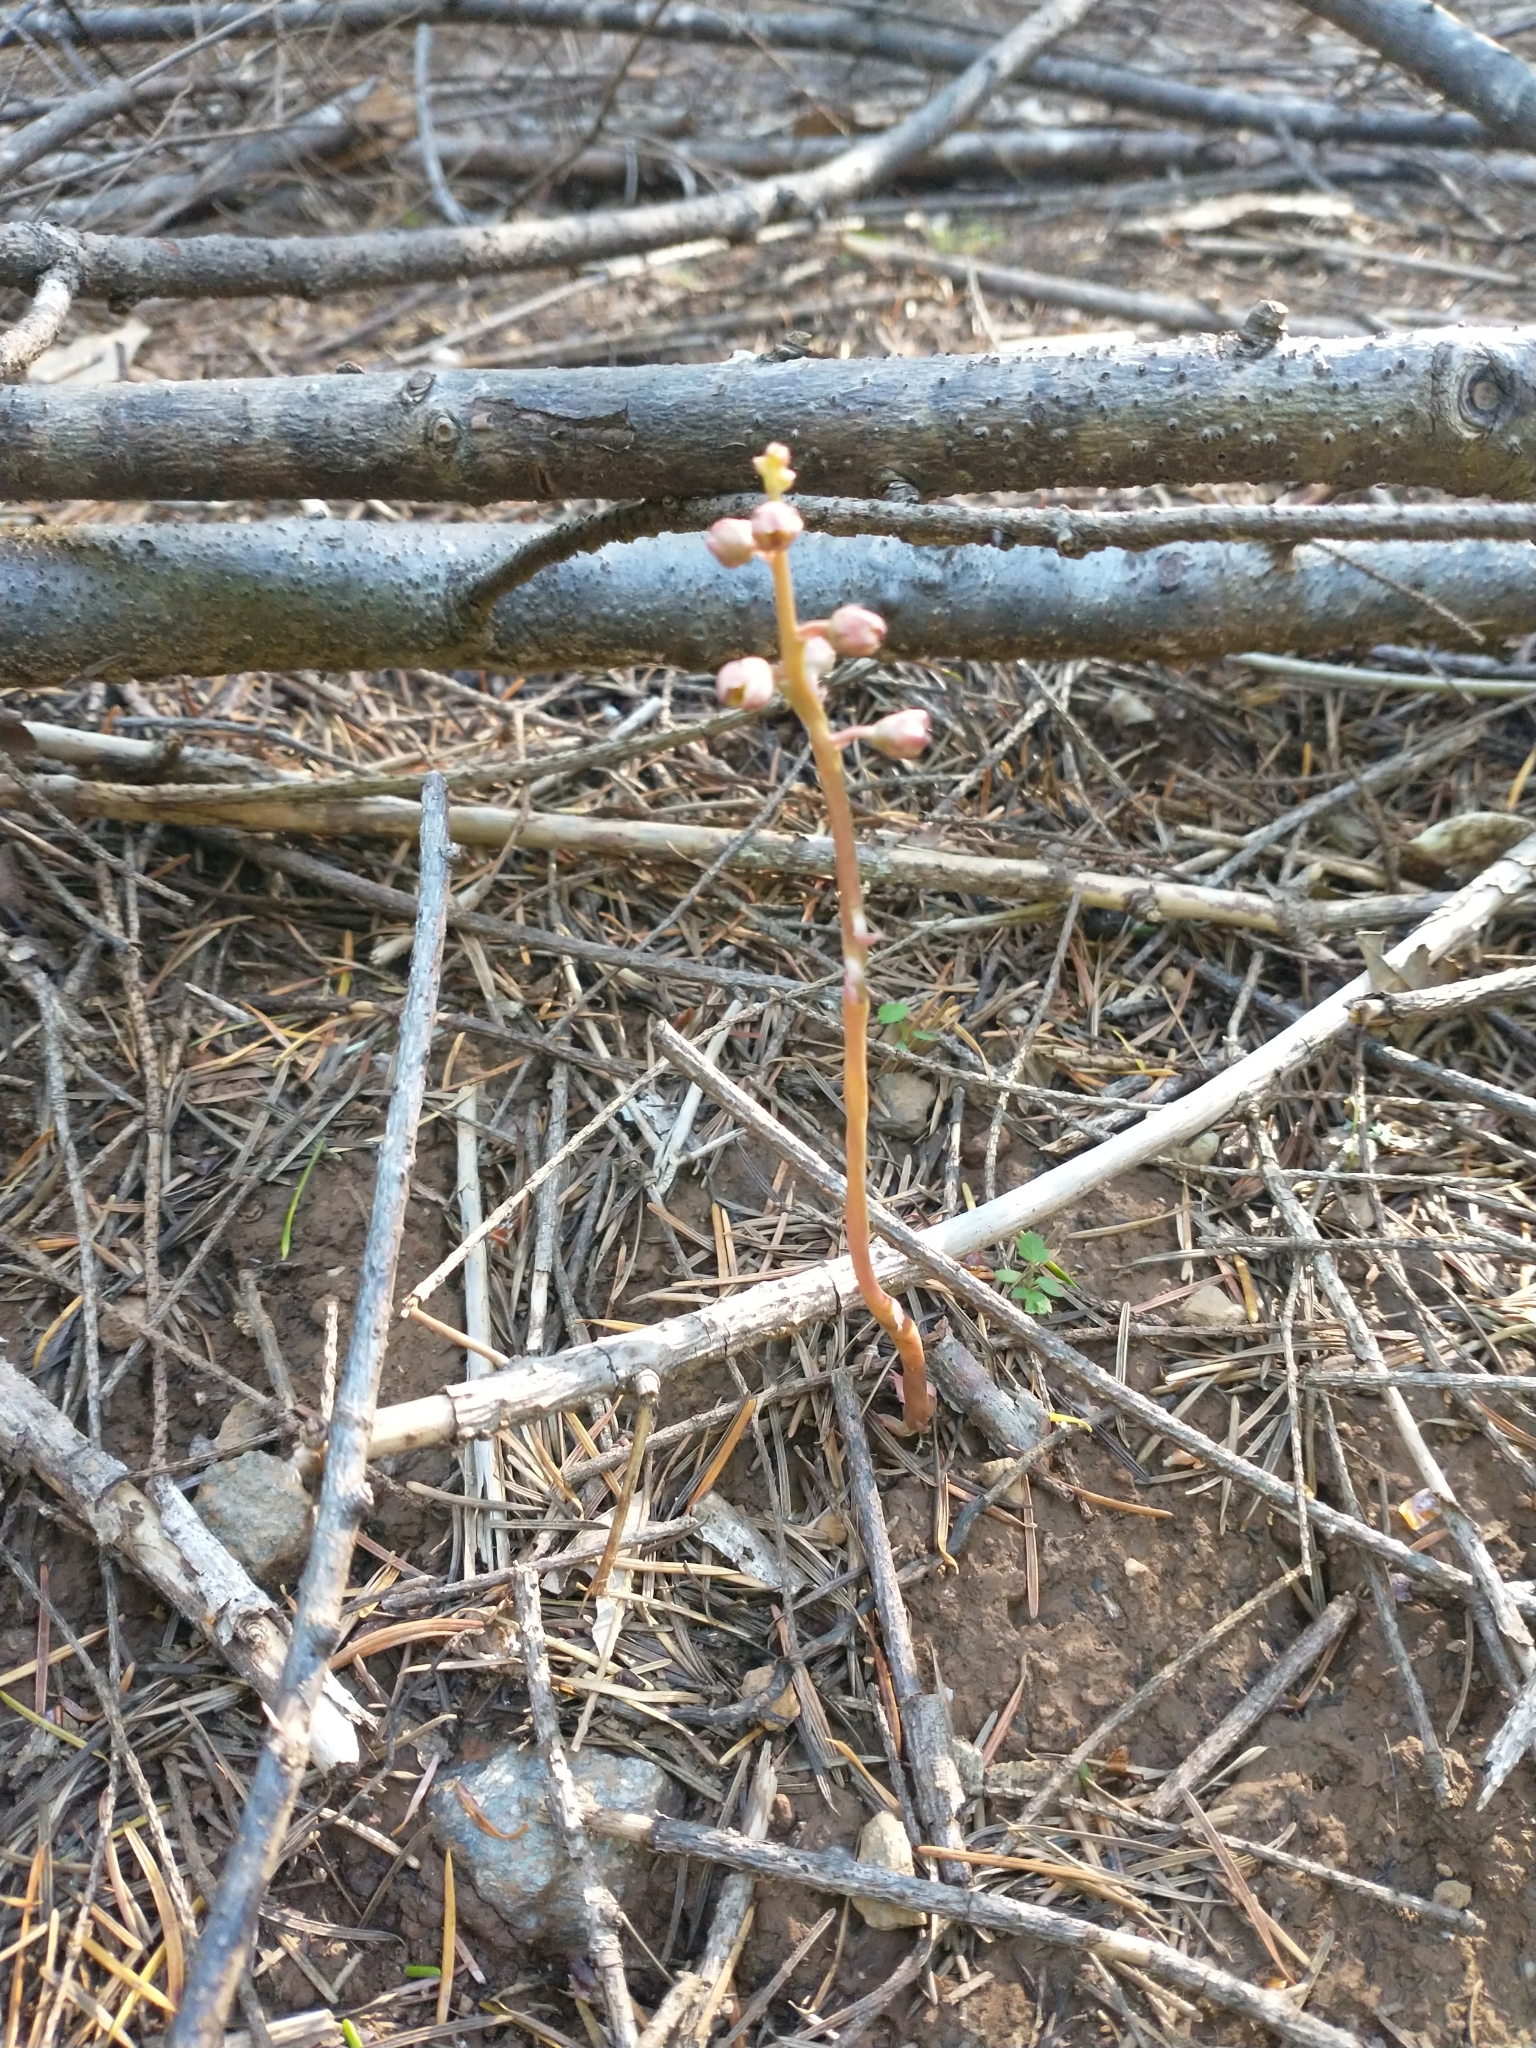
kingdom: Plantae
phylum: Tracheophyta
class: Magnoliopsida
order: Ericales
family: Ericaceae
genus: Pyrola
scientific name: Pyrola aphylla
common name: Leafless wintergreen
